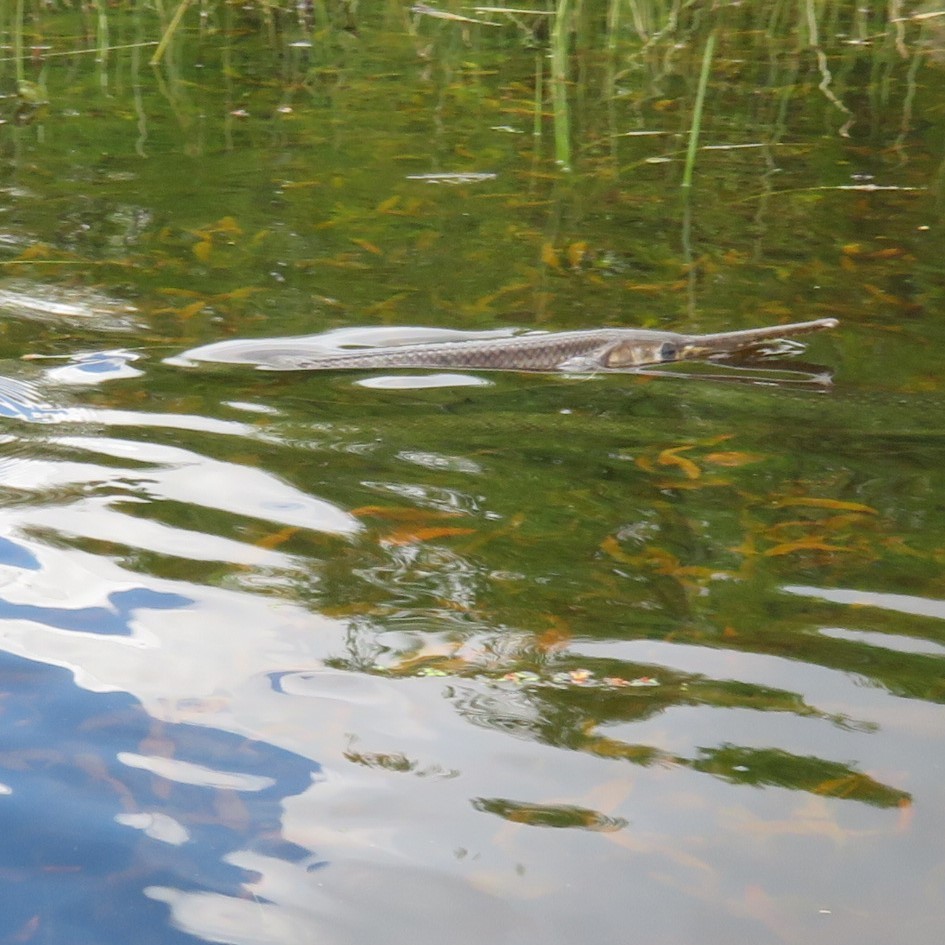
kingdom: Animalia
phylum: Chordata
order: Lepisosteiformes
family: Lepisosteidae
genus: Lepisosteus
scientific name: Lepisosteus osseus
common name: Longnose gar
